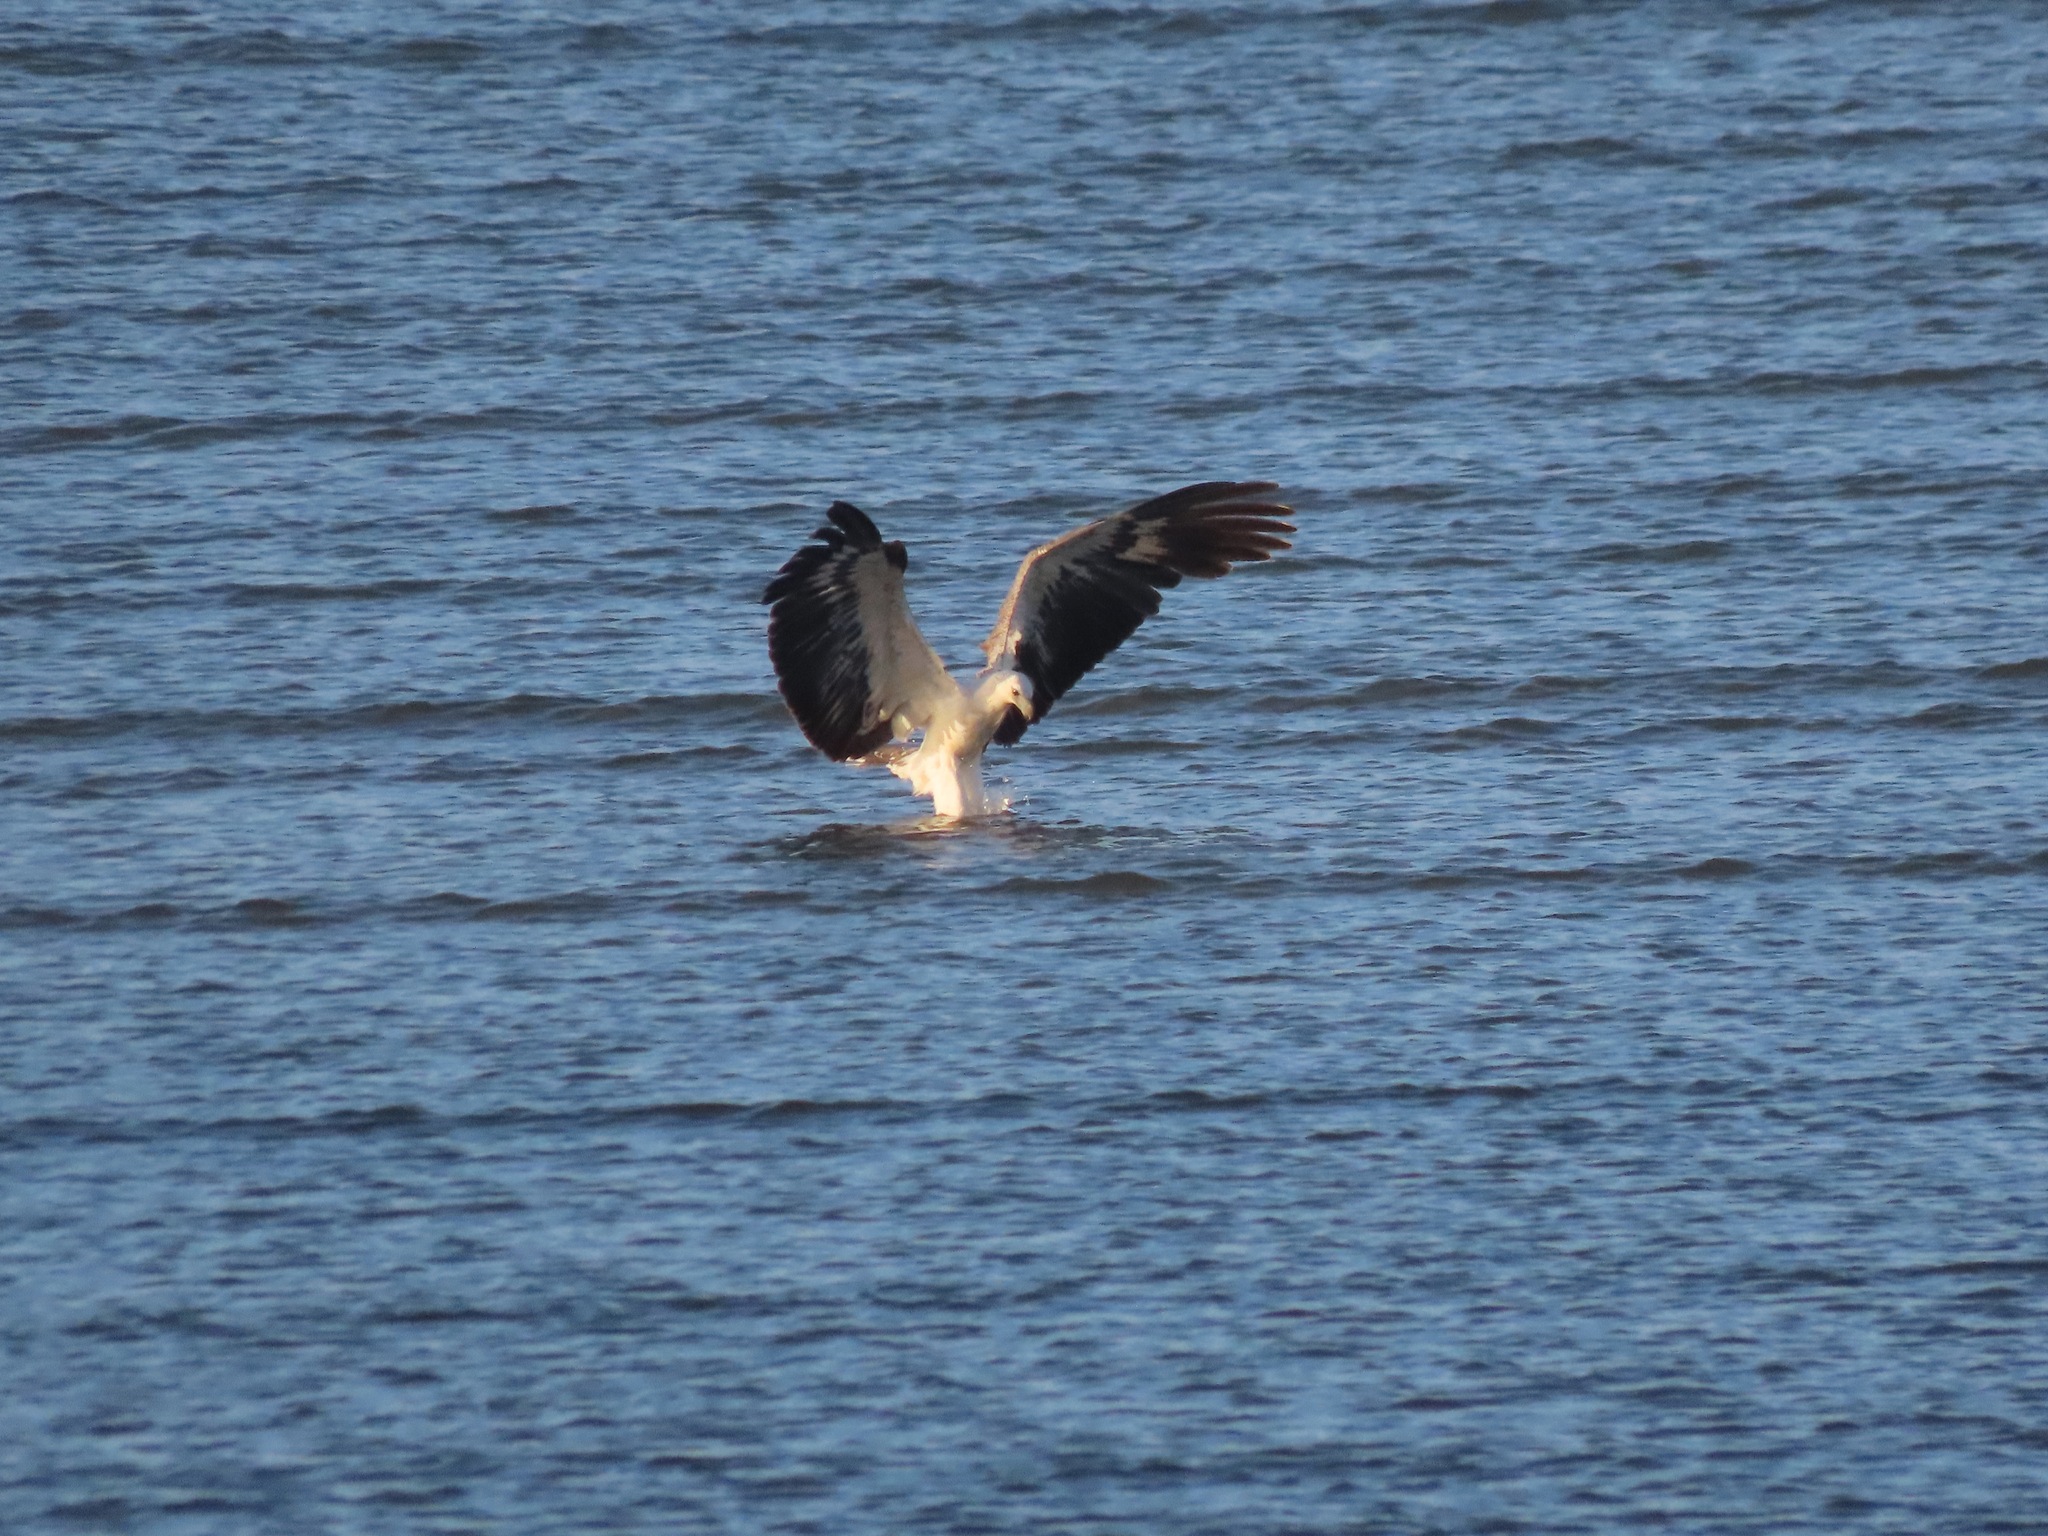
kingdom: Animalia
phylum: Chordata
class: Aves
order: Accipitriformes
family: Accipitridae
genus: Haliaeetus
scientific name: Haliaeetus leucogaster
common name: White-bellied sea eagle
